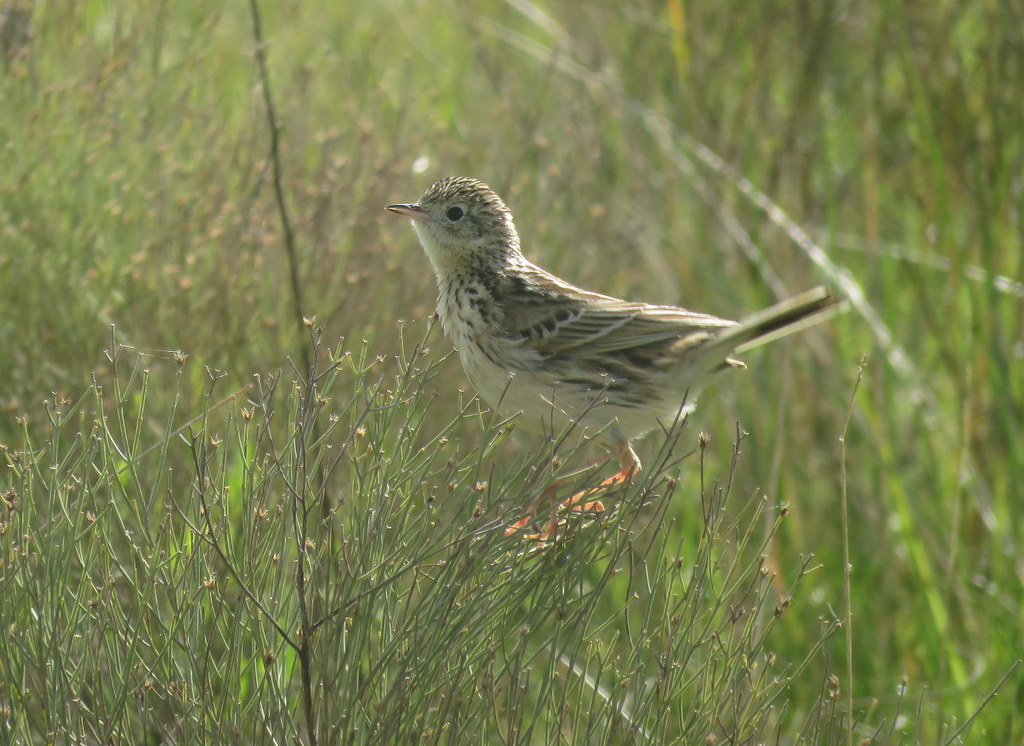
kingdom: Animalia
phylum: Chordata
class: Aves
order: Passeriformes
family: Motacillidae
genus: Anthus
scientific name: Anthus hellmayri
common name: Hellmayr's pipit
